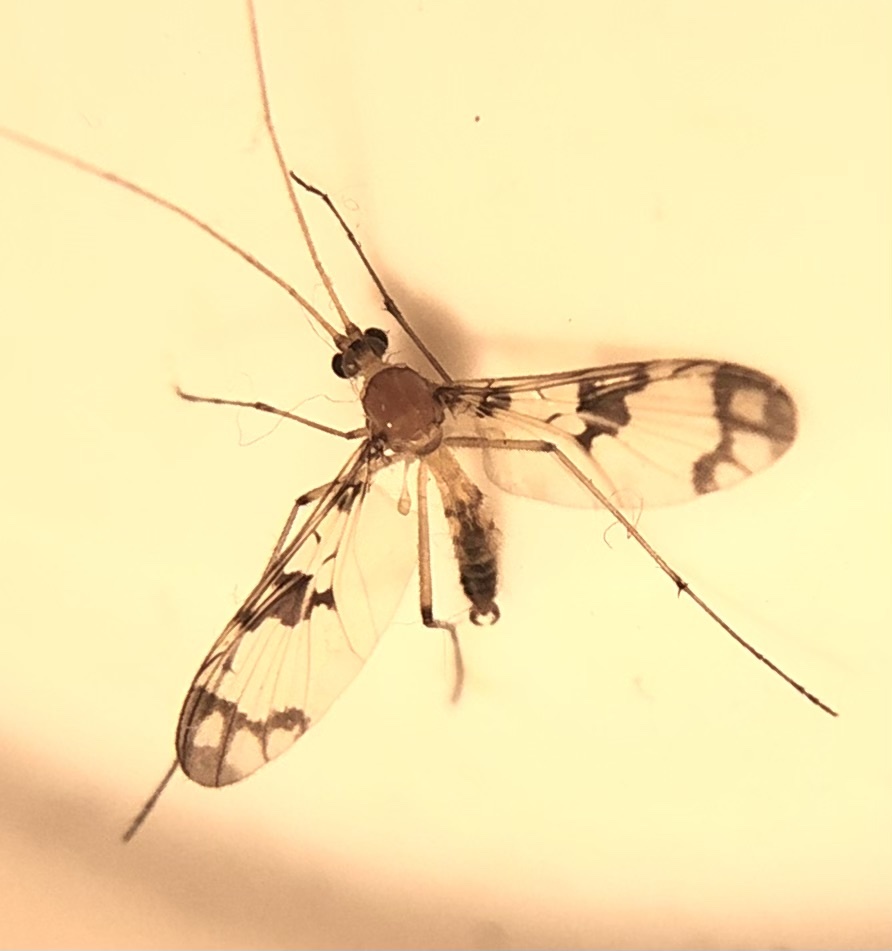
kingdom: Animalia
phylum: Arthropoda
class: Insecta
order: Diptera
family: Keroplatidae
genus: Macrocera
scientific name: Macrocera formosa
